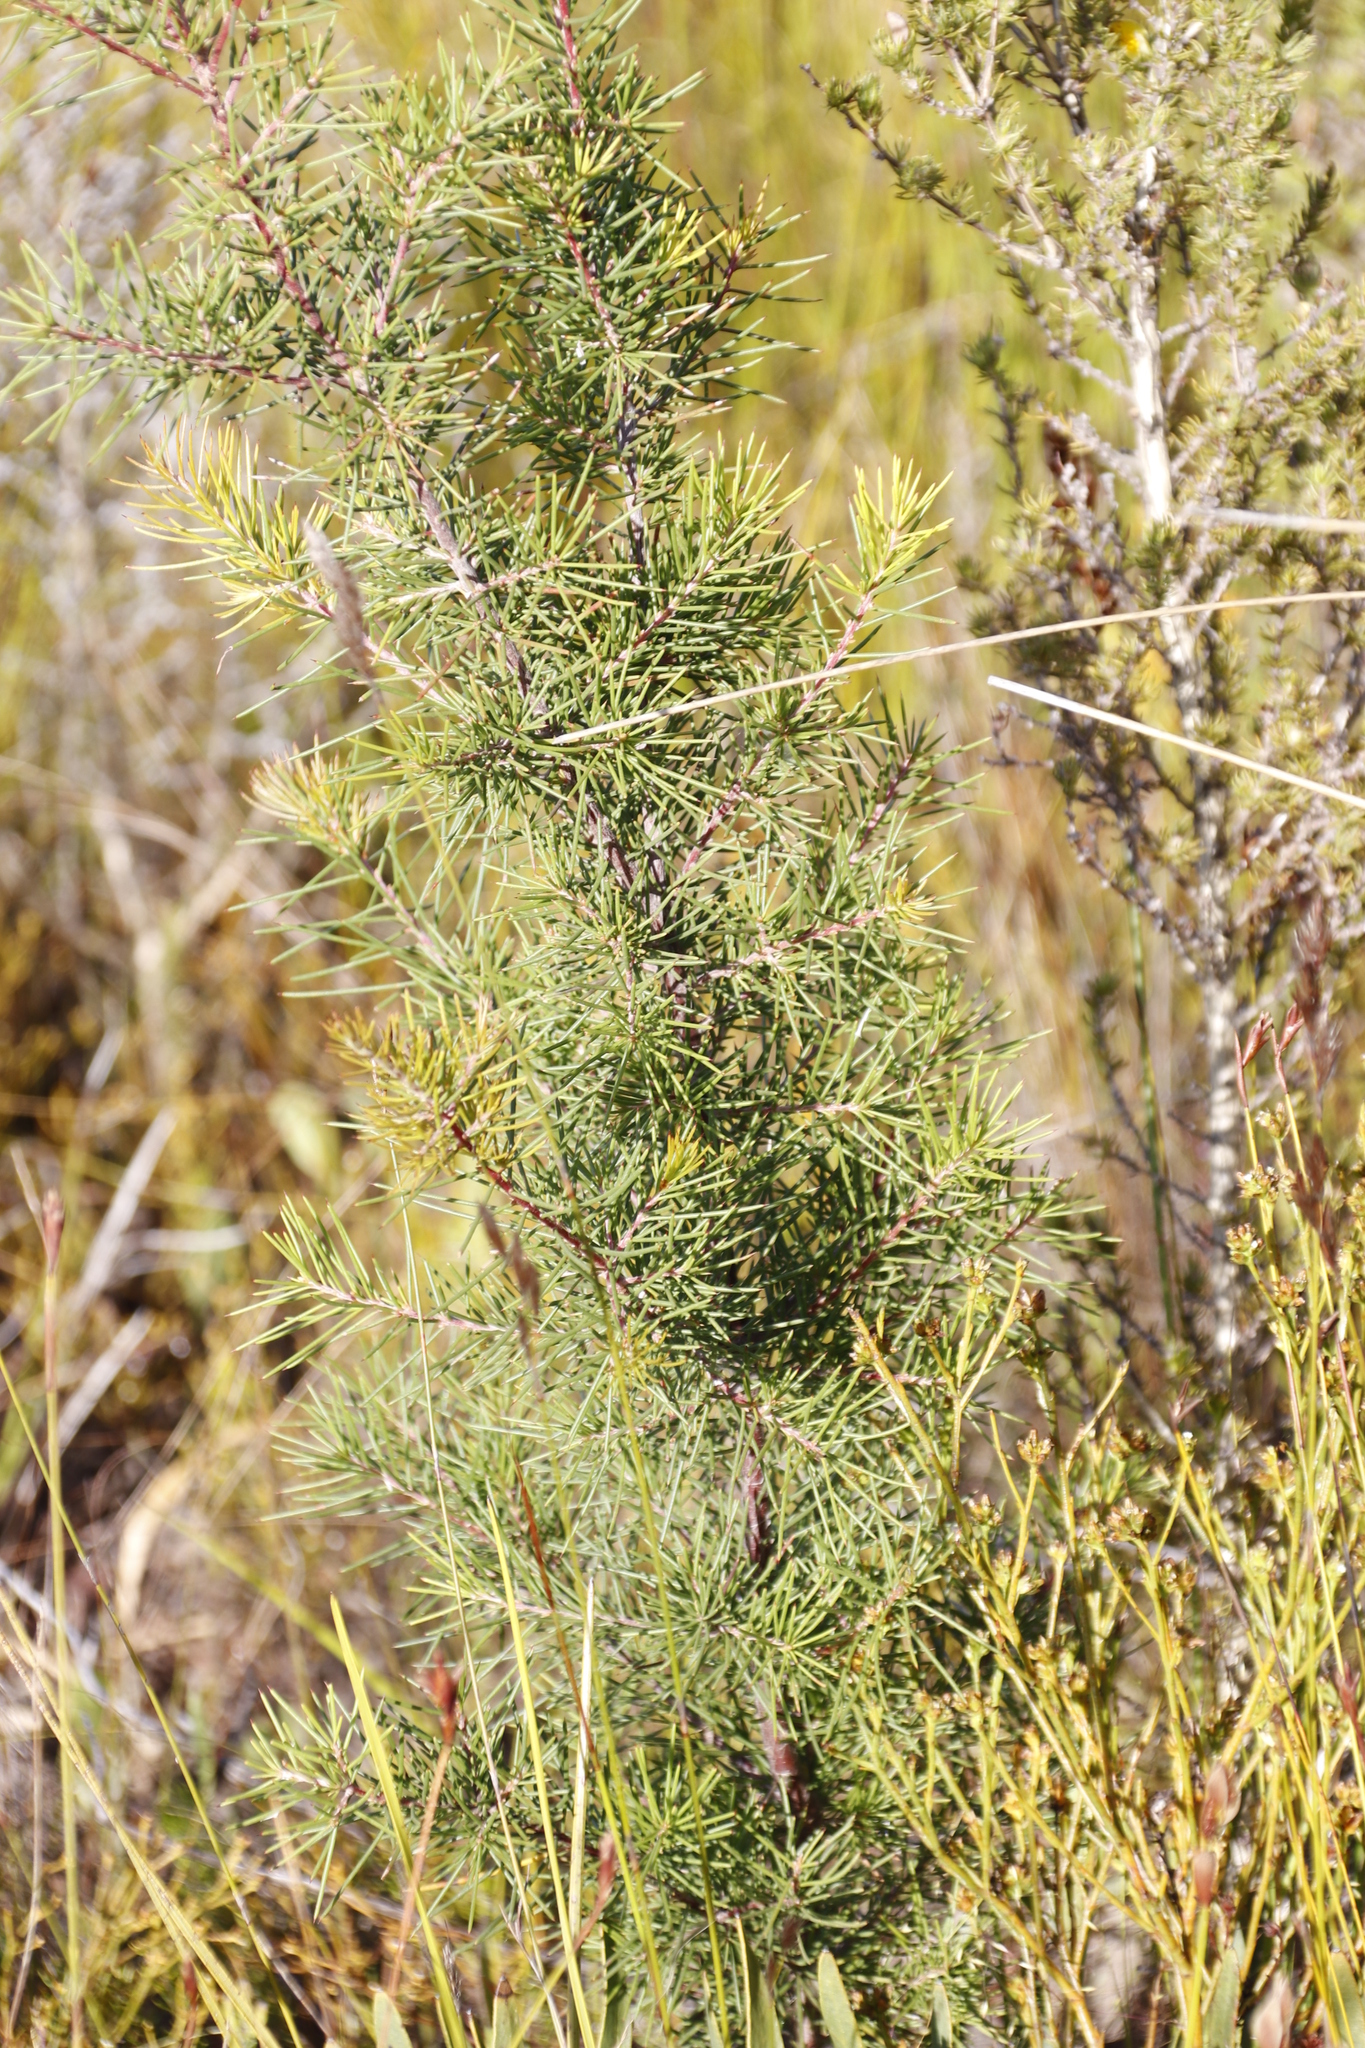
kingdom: Plantae
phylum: Tracheophyta
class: Magnoliopsida
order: Proteales
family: Proteaceae
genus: Hakea
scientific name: Hakea sericea
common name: Needle bush
